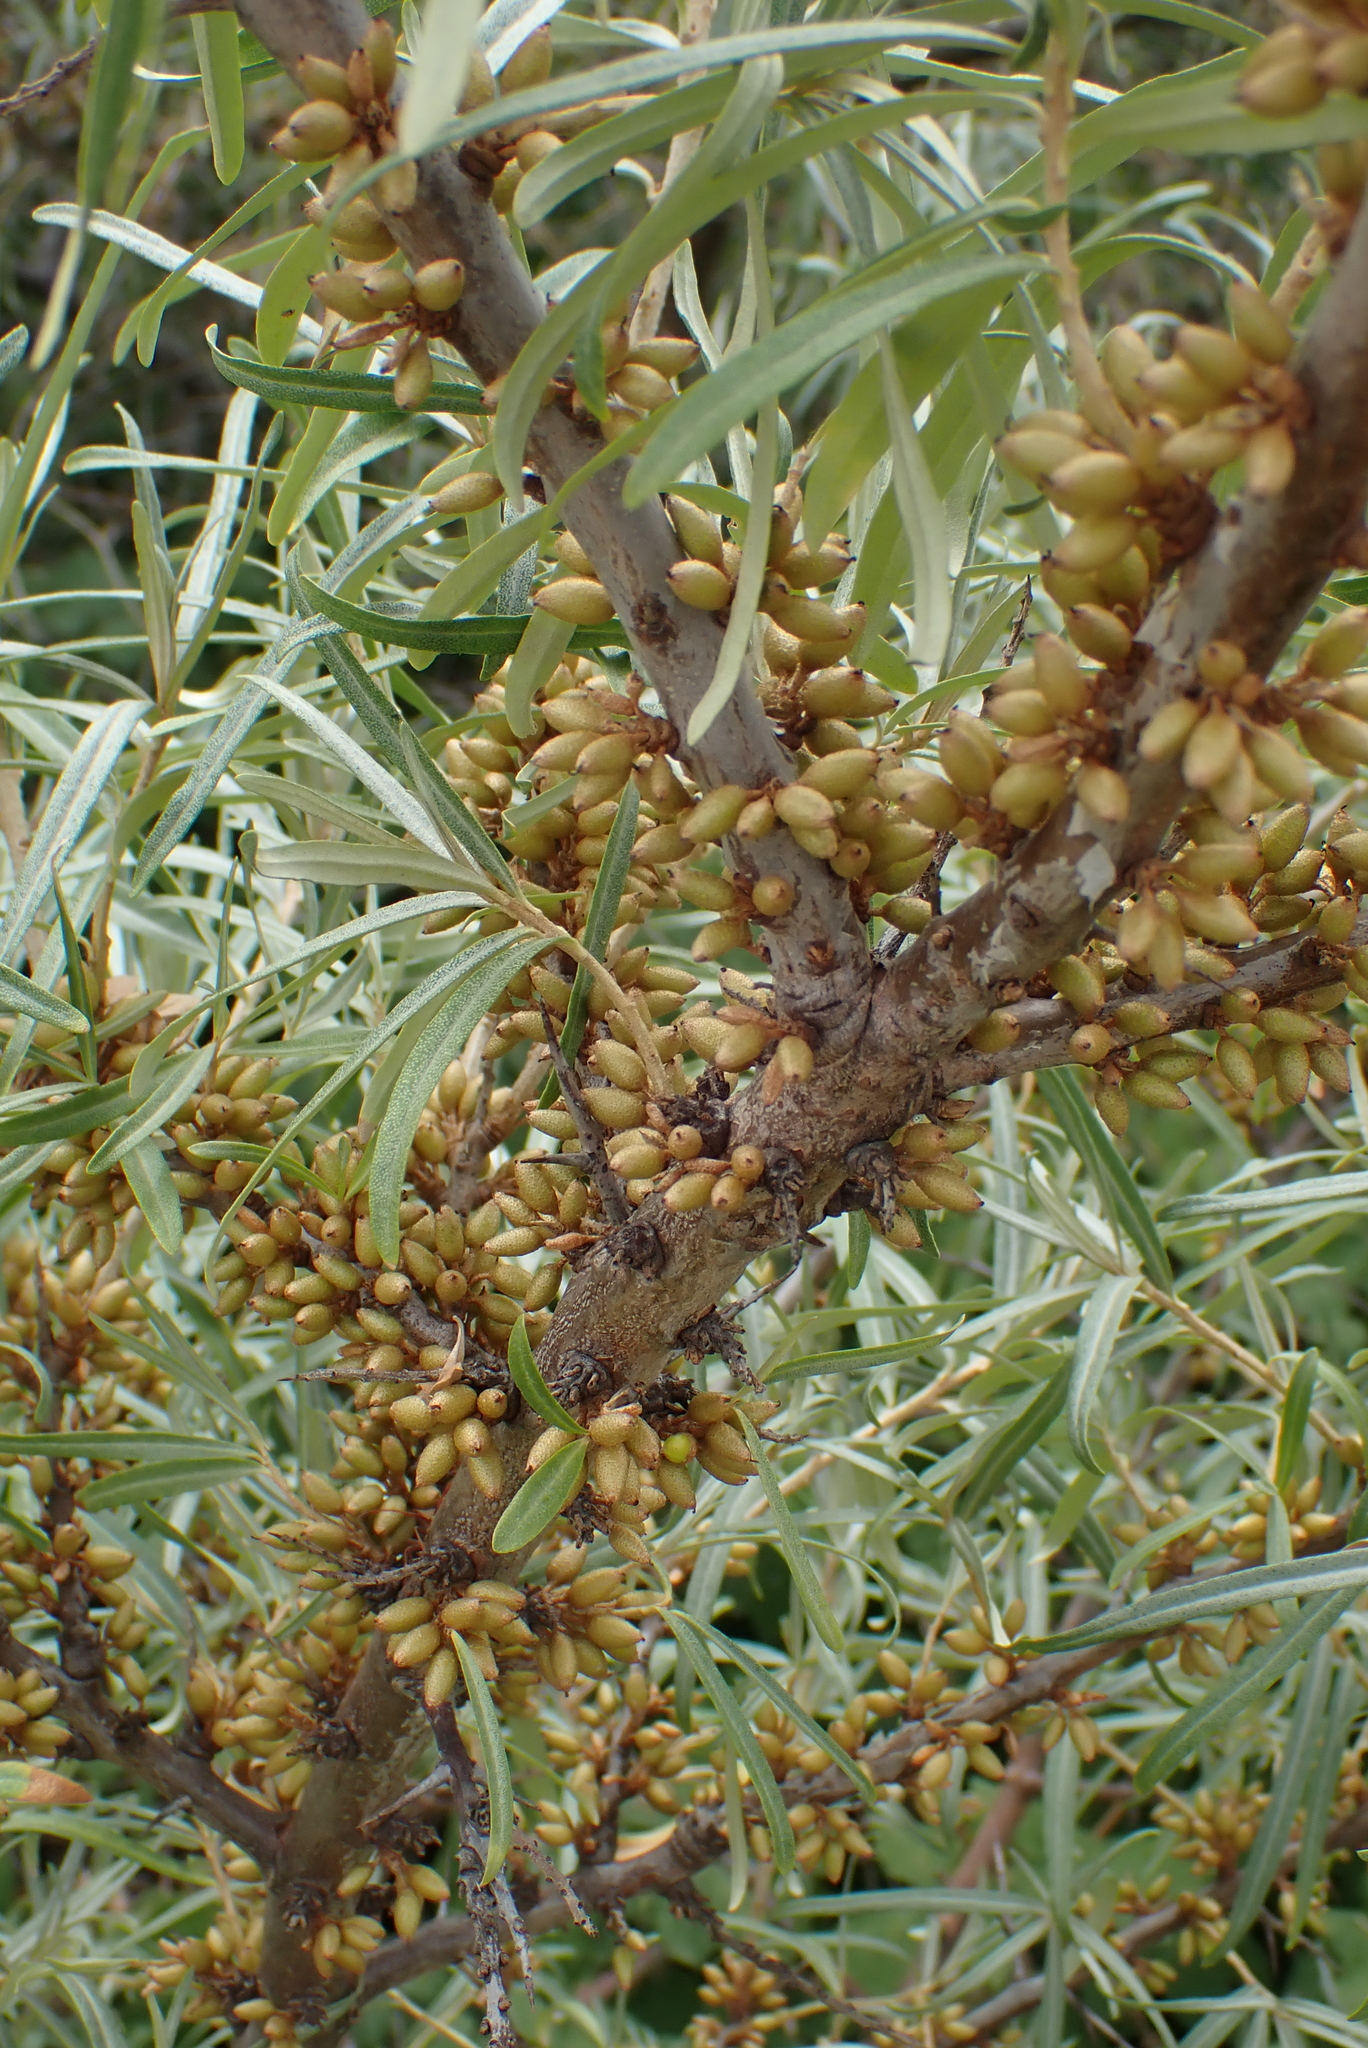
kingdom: Plantae
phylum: Tracheophyta
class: Magnoliopsida
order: Rosales
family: Elaeagnaceae
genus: Hippophae
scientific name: Hippophae rhamnoides
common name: Sea-buckthorn
